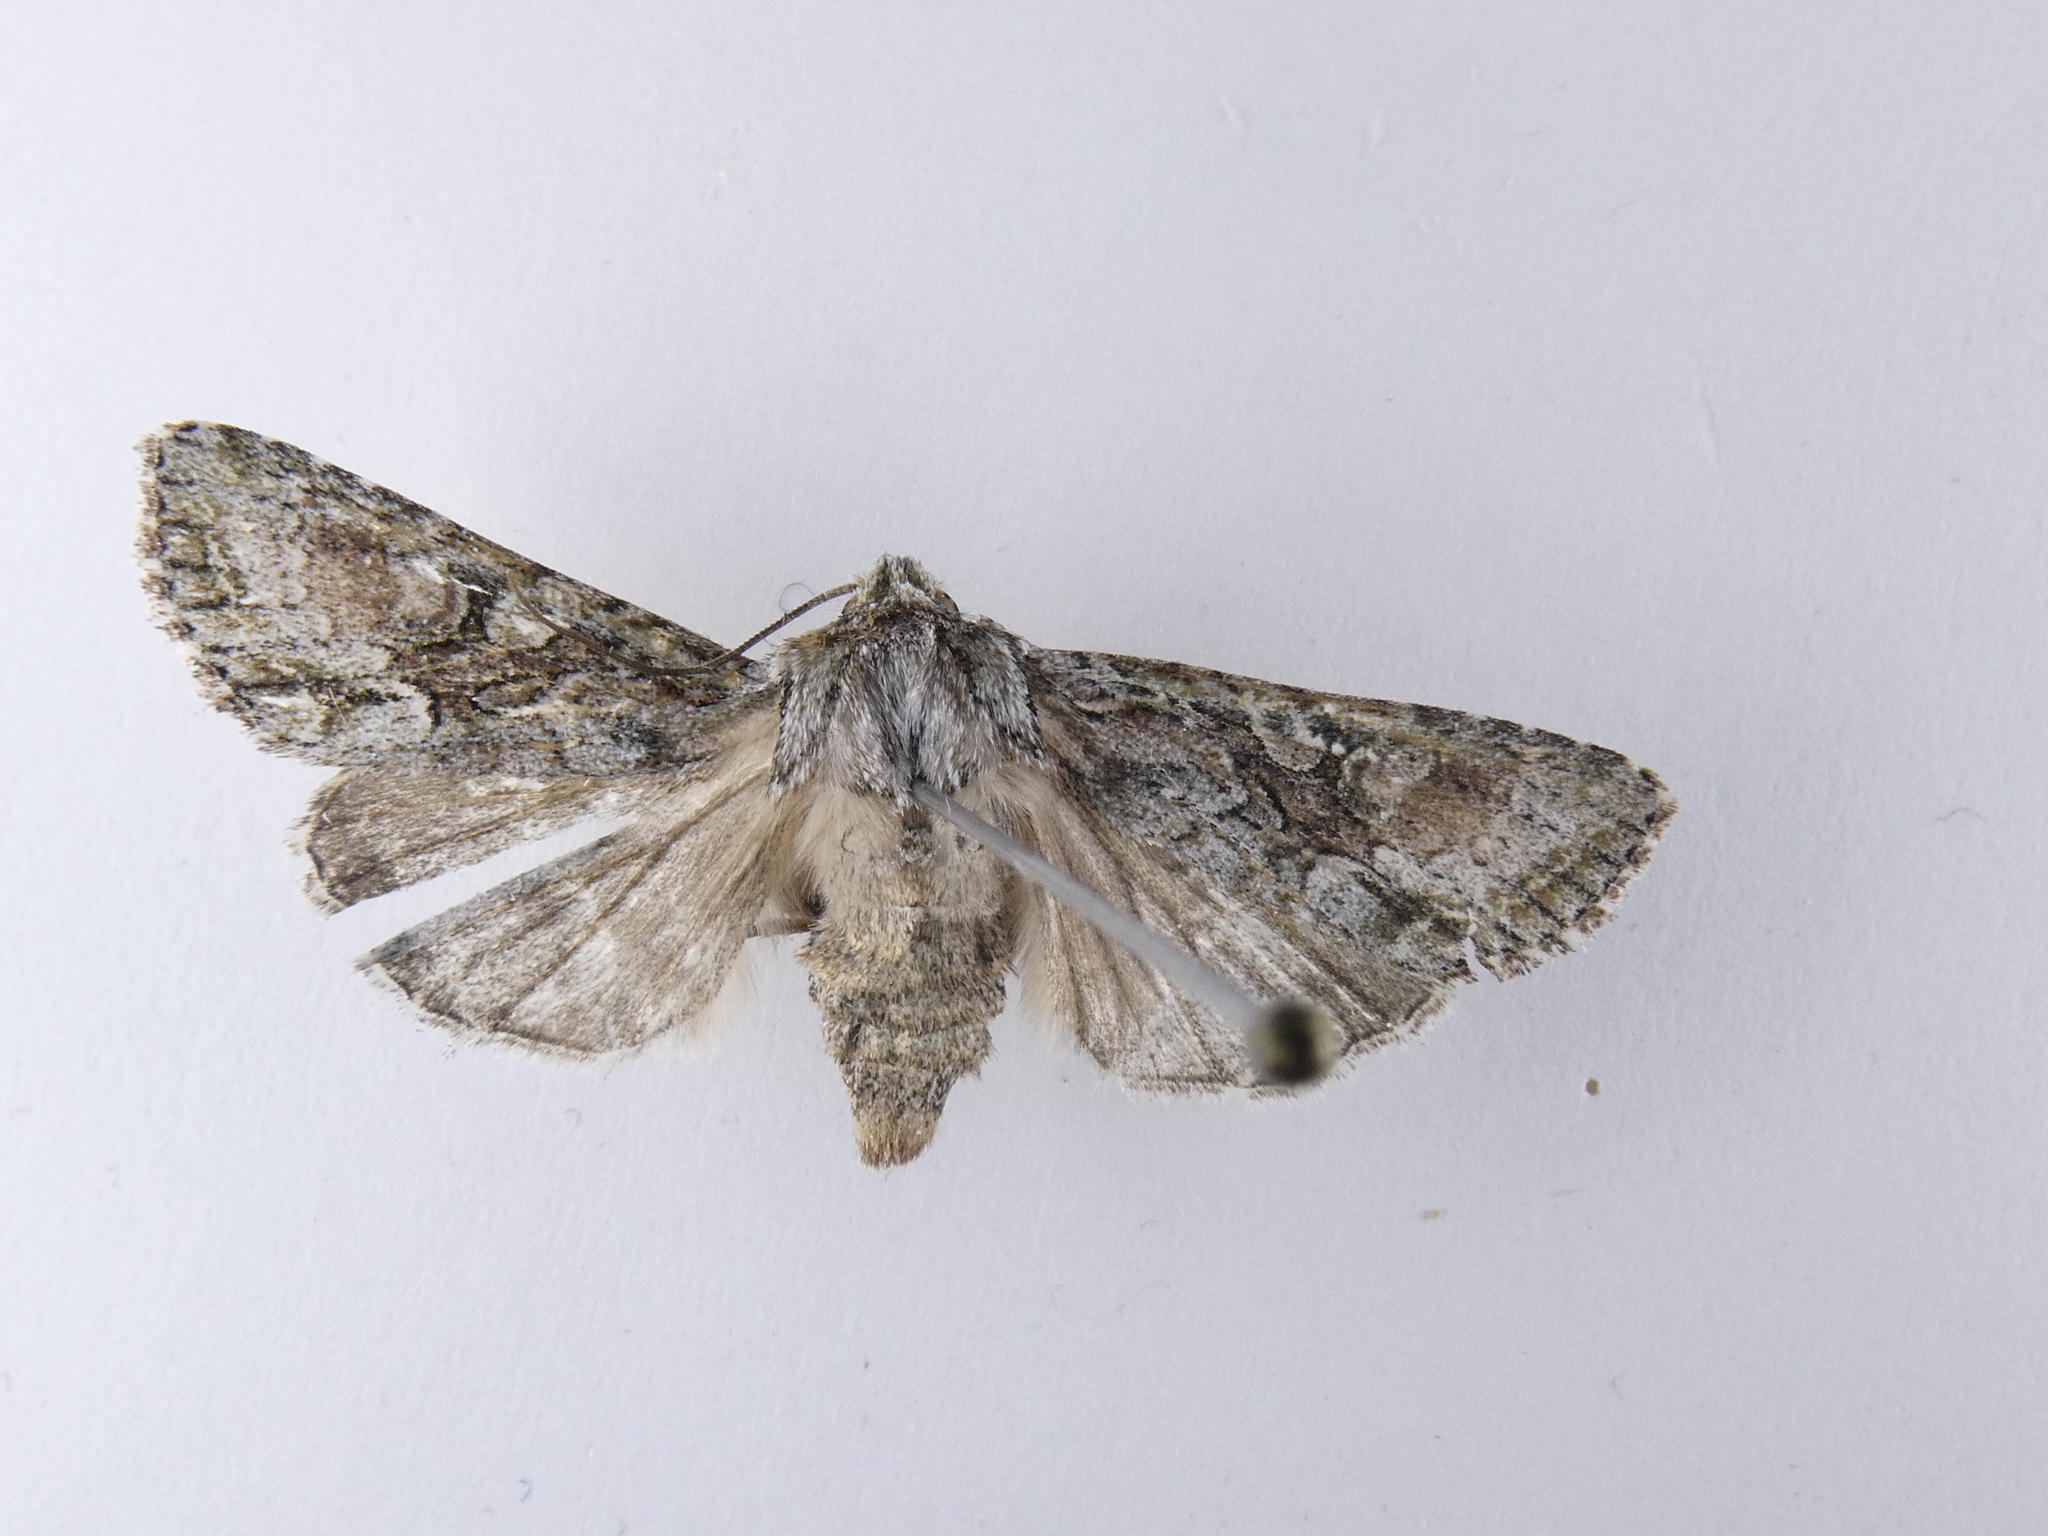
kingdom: Animalia
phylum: Arthropoda
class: Insecta
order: Lepidoptera
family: Noctuidae
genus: Ichneutica
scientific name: Ichneutica mutans
